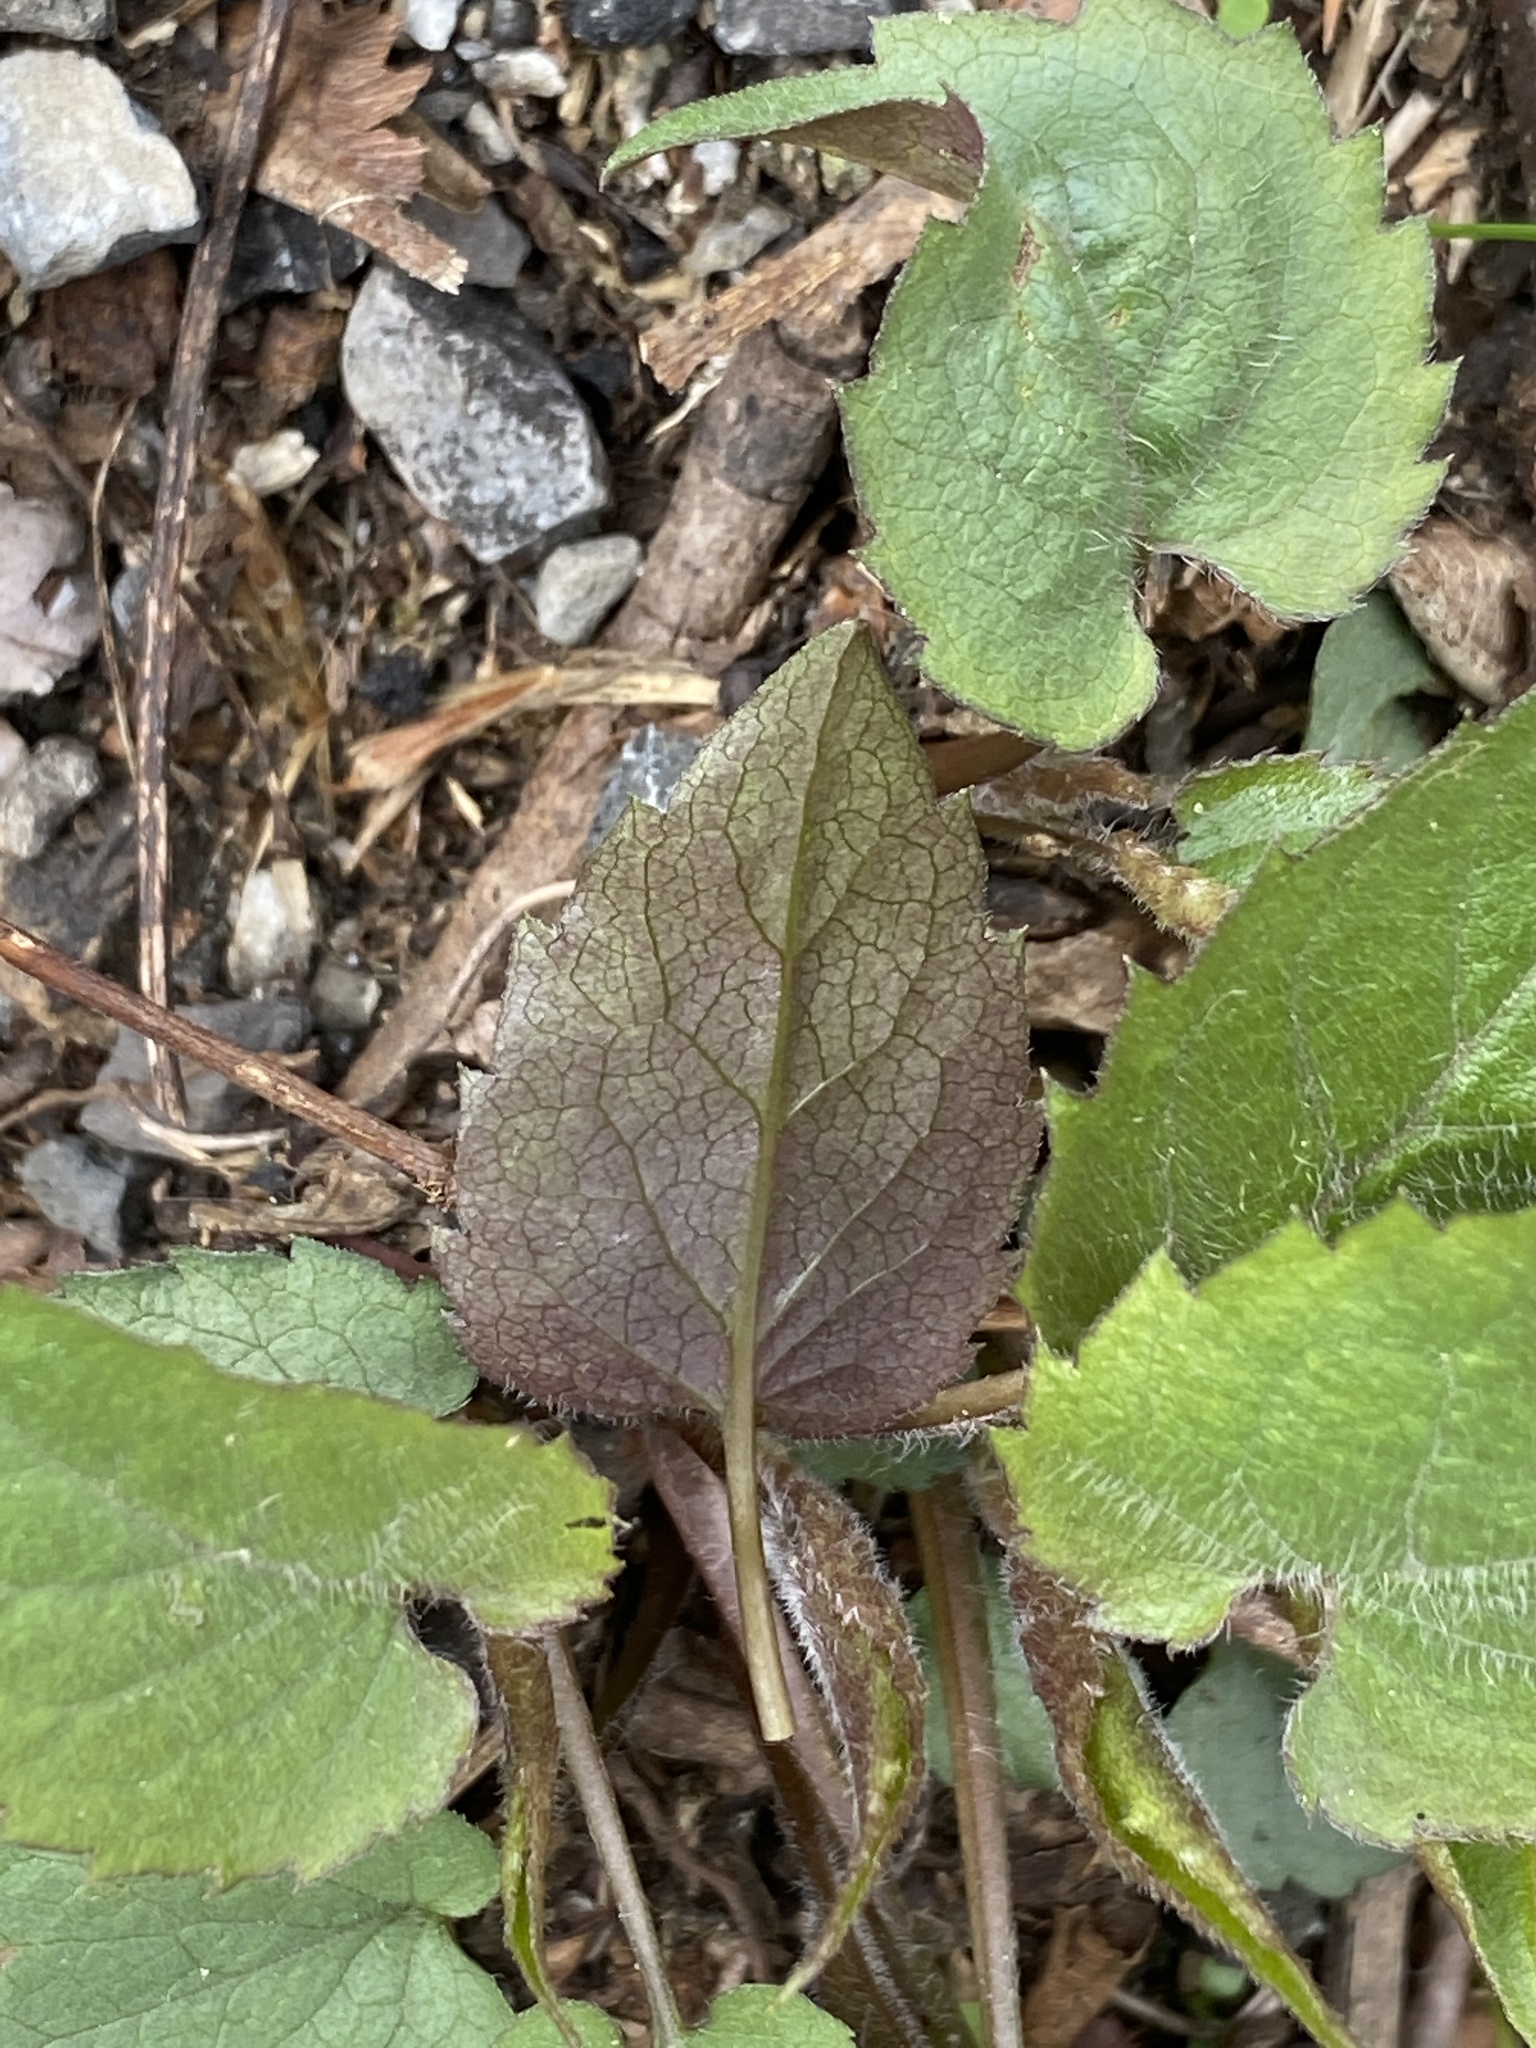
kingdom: Plantae
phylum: Tracheophyta
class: Magnoliopsida
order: Asterales
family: Asteraceae
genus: Eurybia
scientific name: Eurybia divaricata
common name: White wood aster
